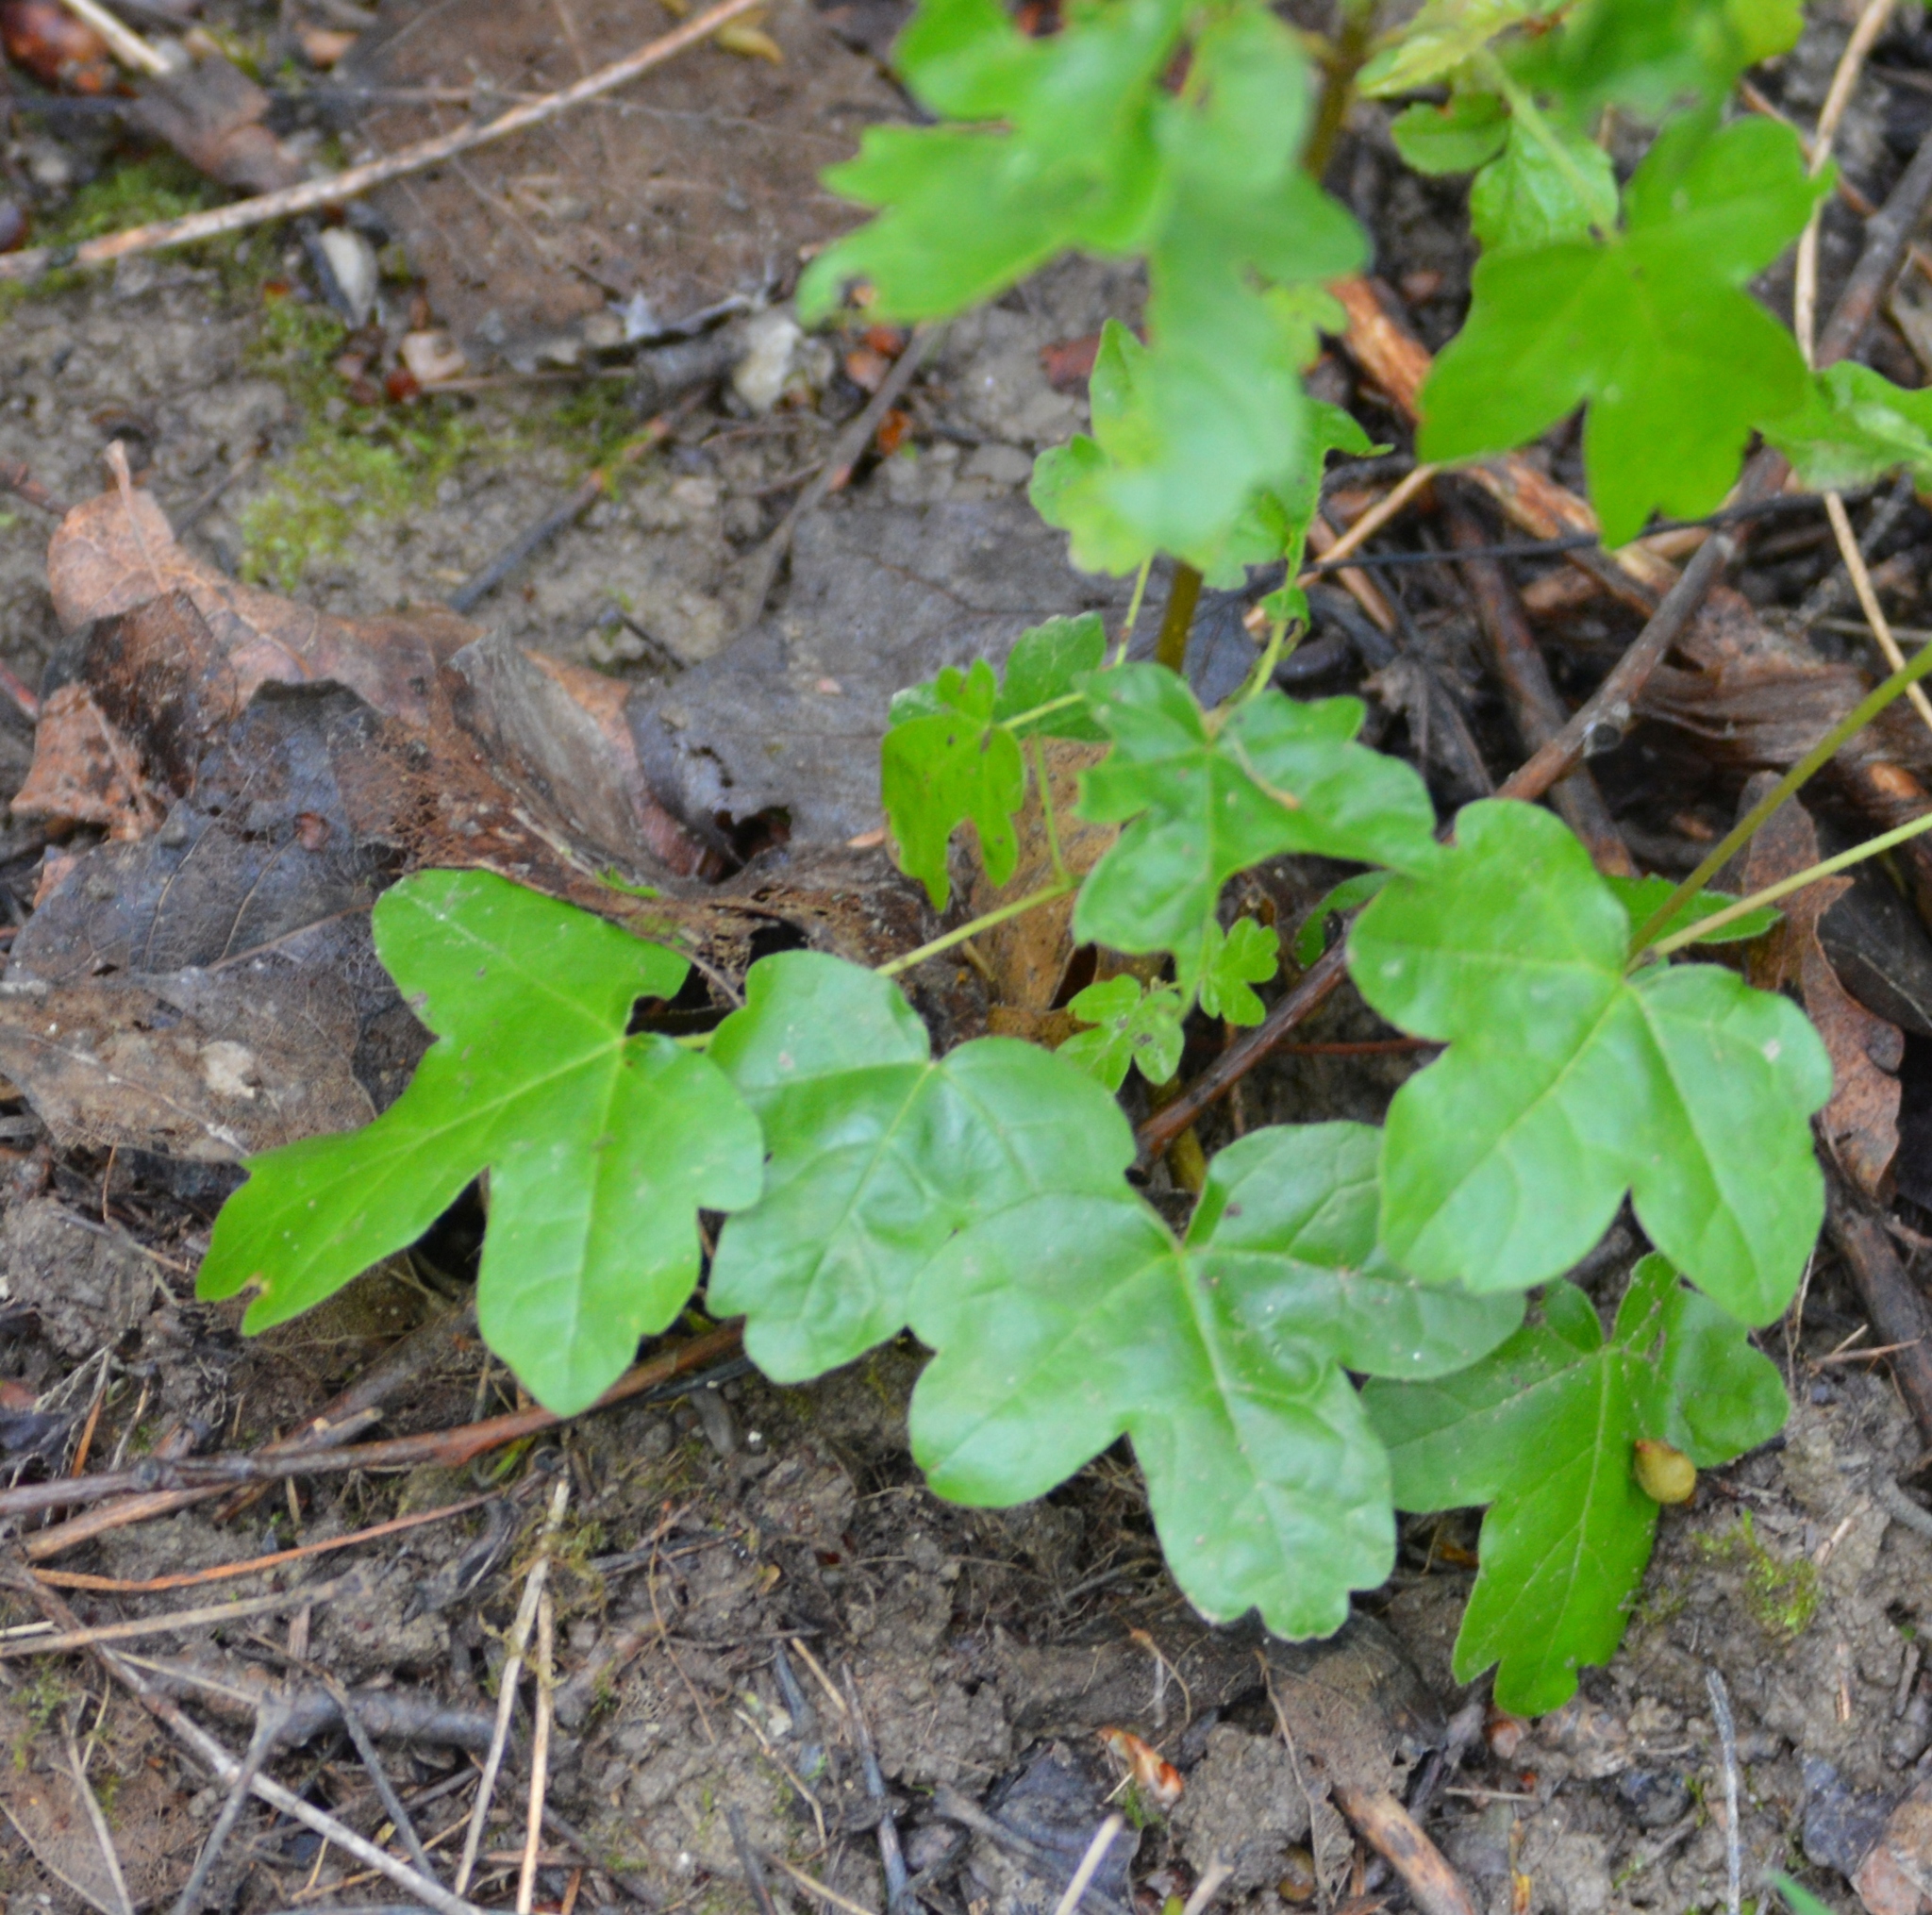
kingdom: Plantae
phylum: Tracheophyta
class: Magnoliopsida
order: Sapindales
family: Sapindaceae
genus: Acer
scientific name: Acer campestre
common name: Field maple
